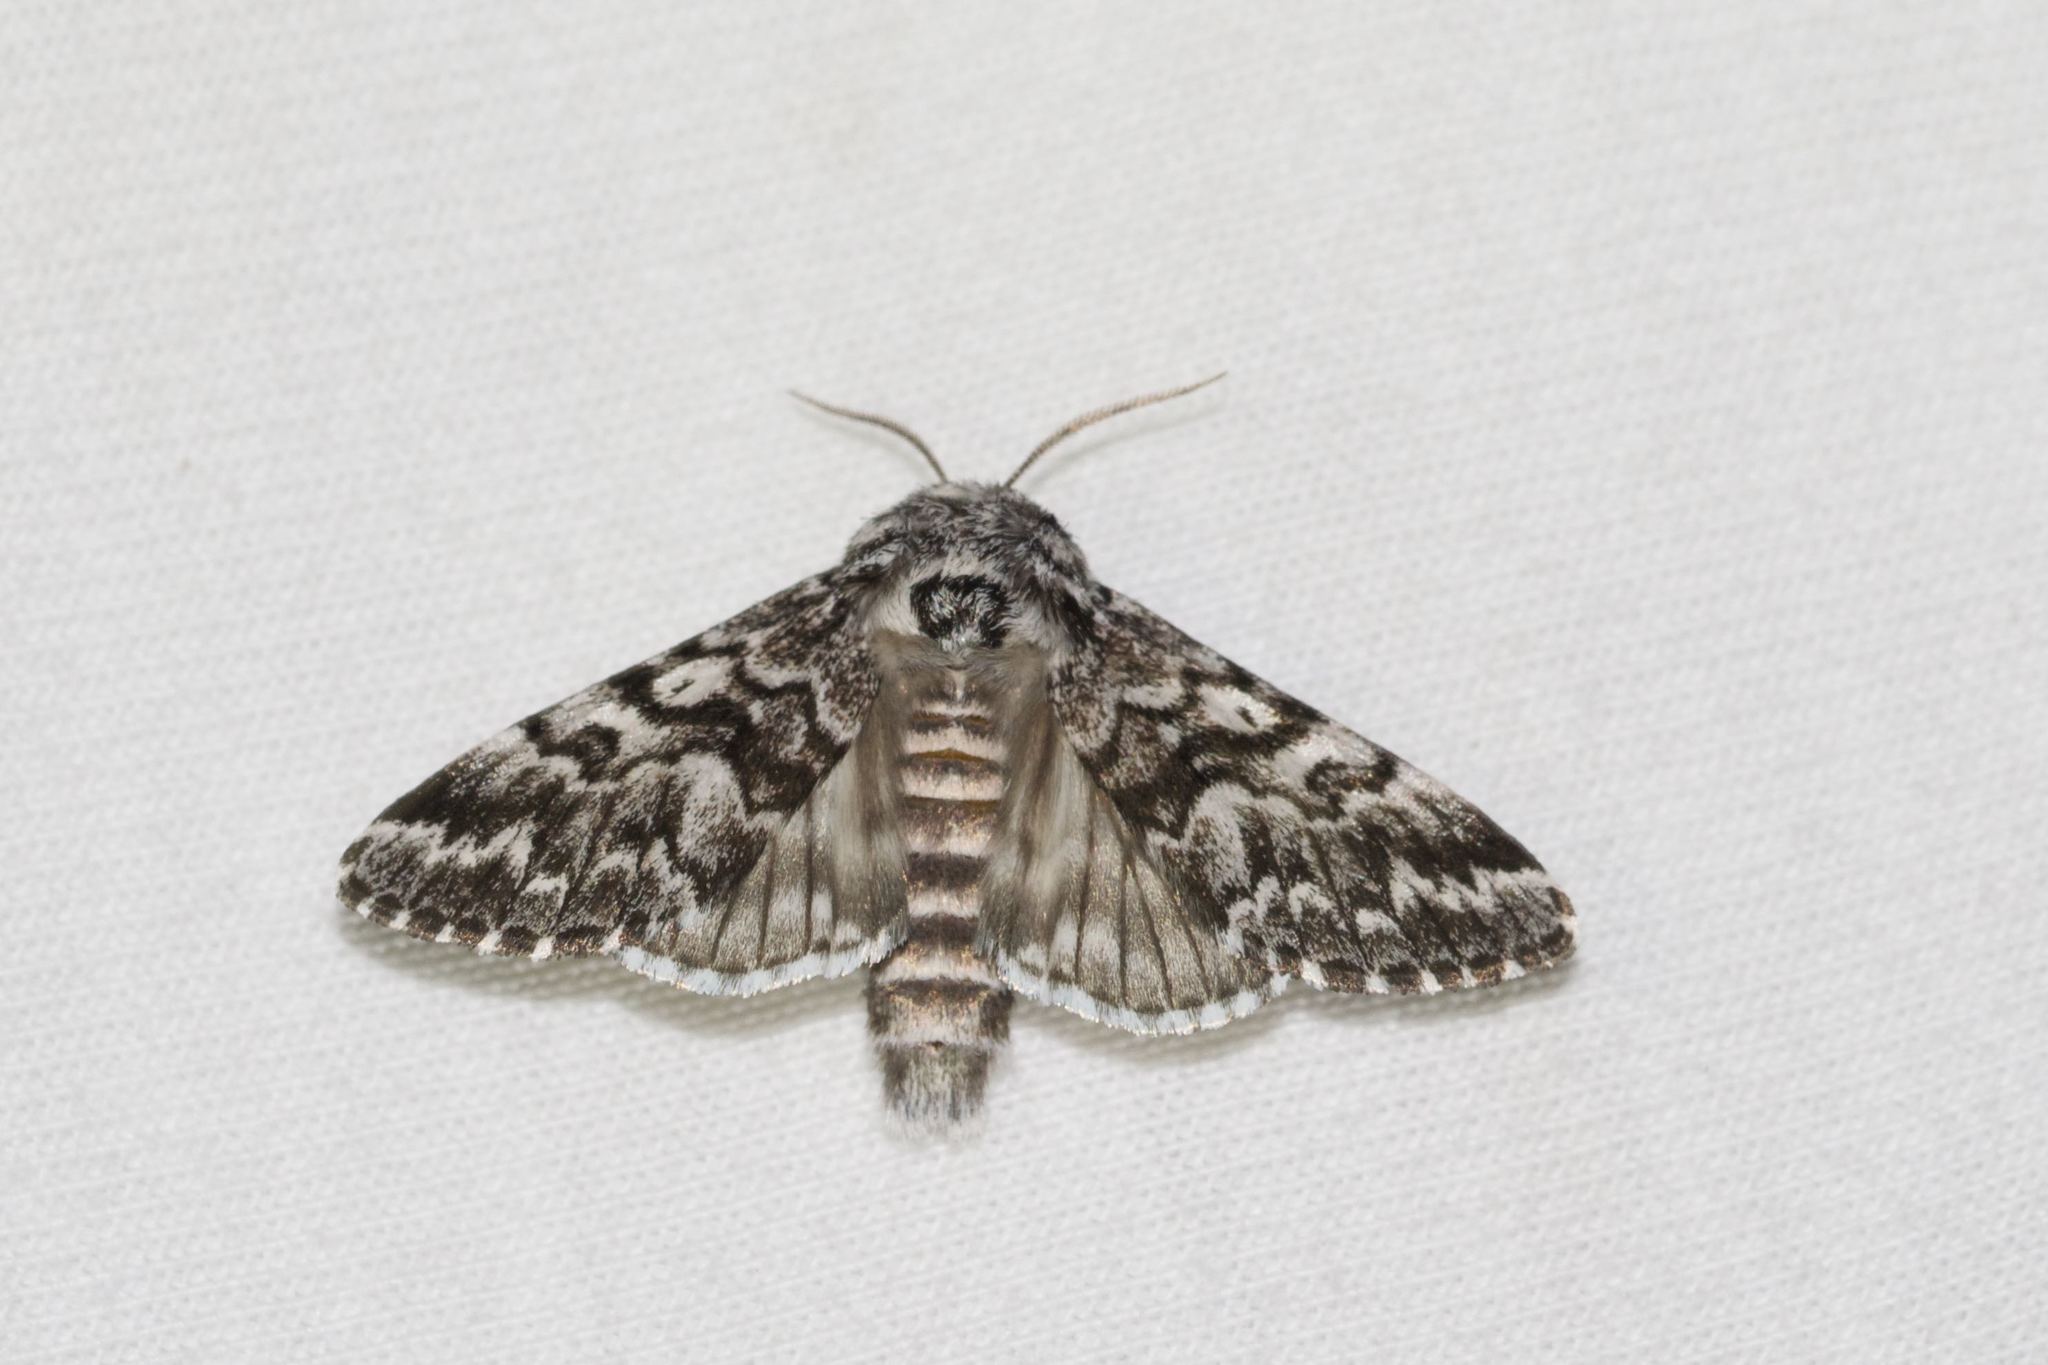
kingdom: Animalia
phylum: Arthropoda
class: Insecta
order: Lepidoptera
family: Noctuidae
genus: Panthea
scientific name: Panthea acronyctoides
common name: Black zigzag moth
